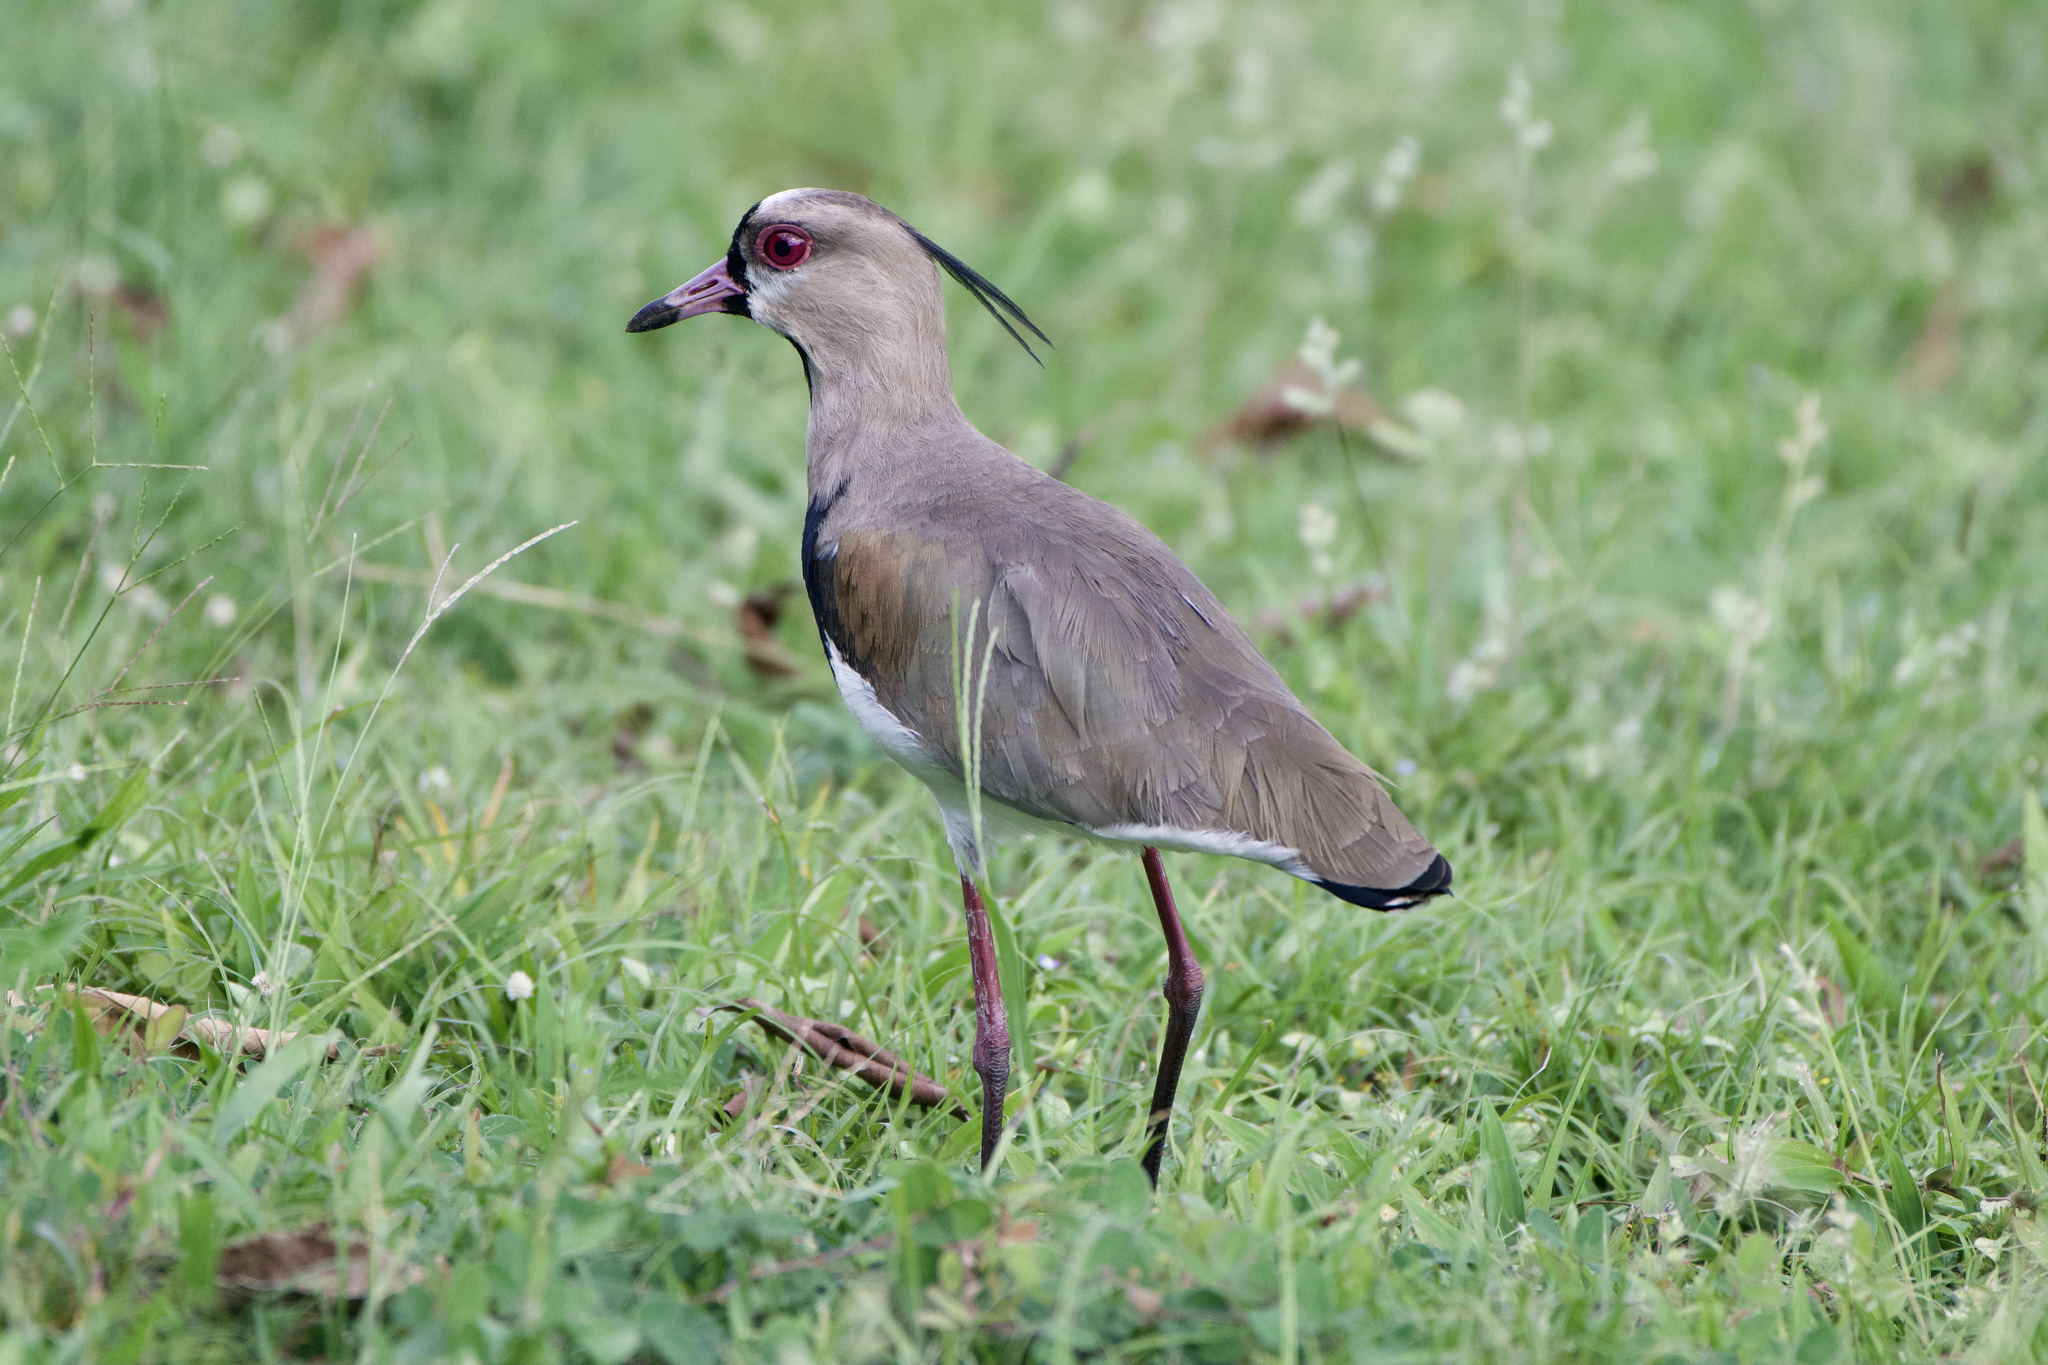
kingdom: Animalia
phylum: Chordata
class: Aves
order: Charadriiformes
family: Charadriidae
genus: Vanellus
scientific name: Vanellus chilensis
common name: Southern lapwing
